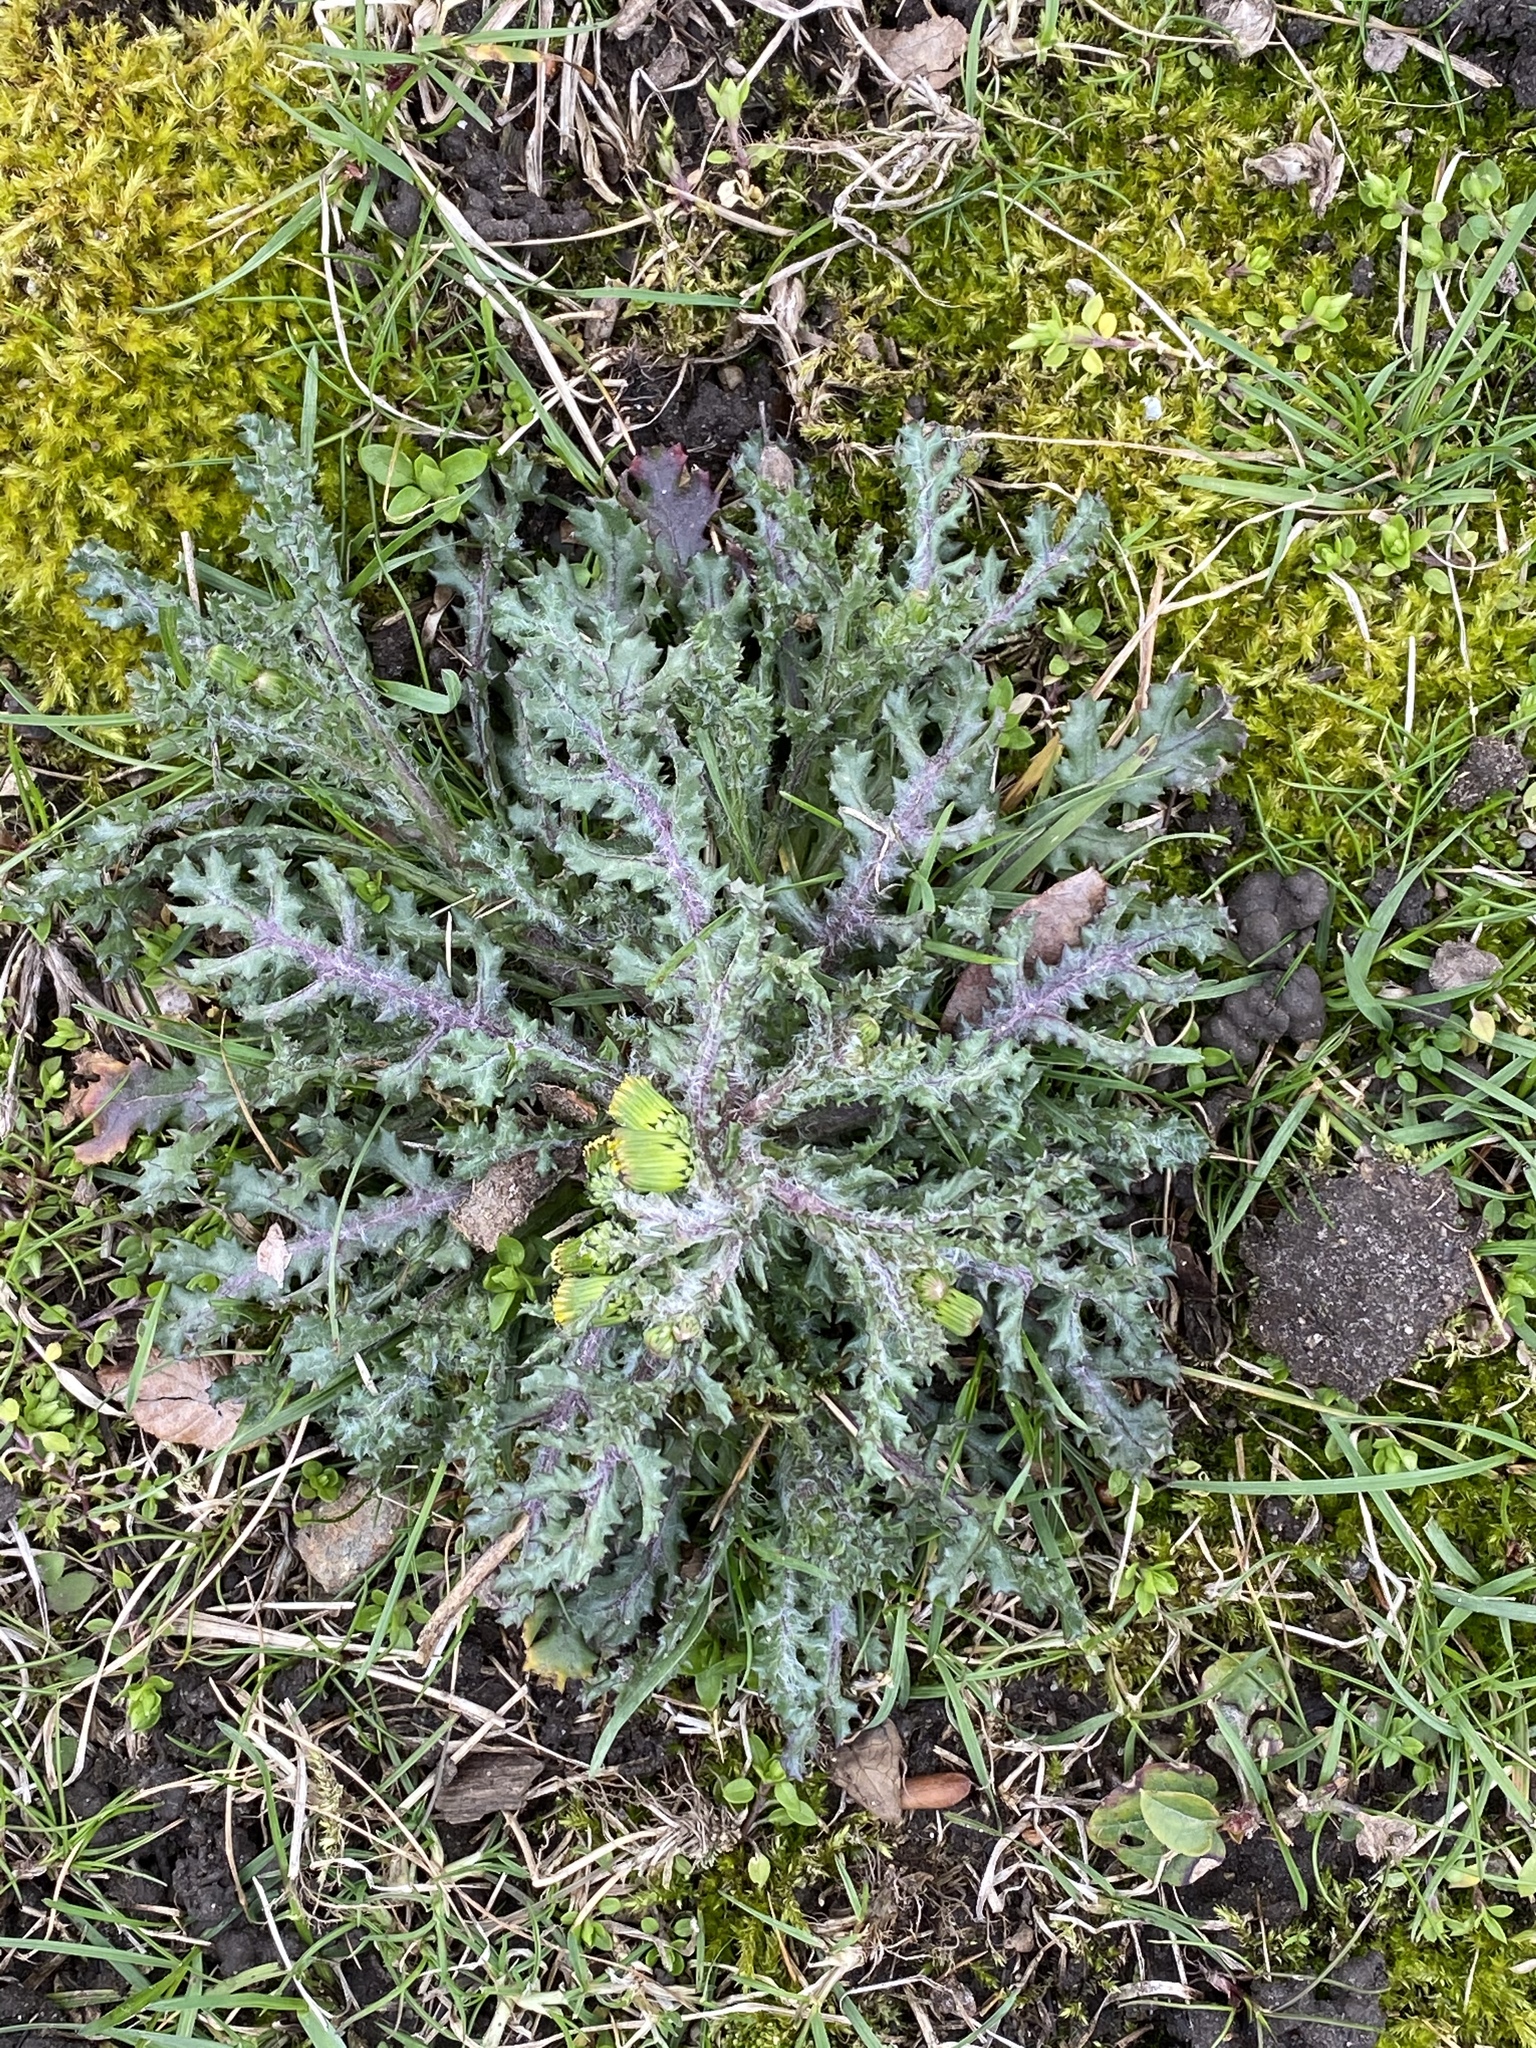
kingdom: Plantae
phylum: Tracheophyta
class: Magnoliopsida
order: Asterales
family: Asteraceae
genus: Senecio
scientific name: Senecio vulgaris
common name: Old-man-in-the-spring
